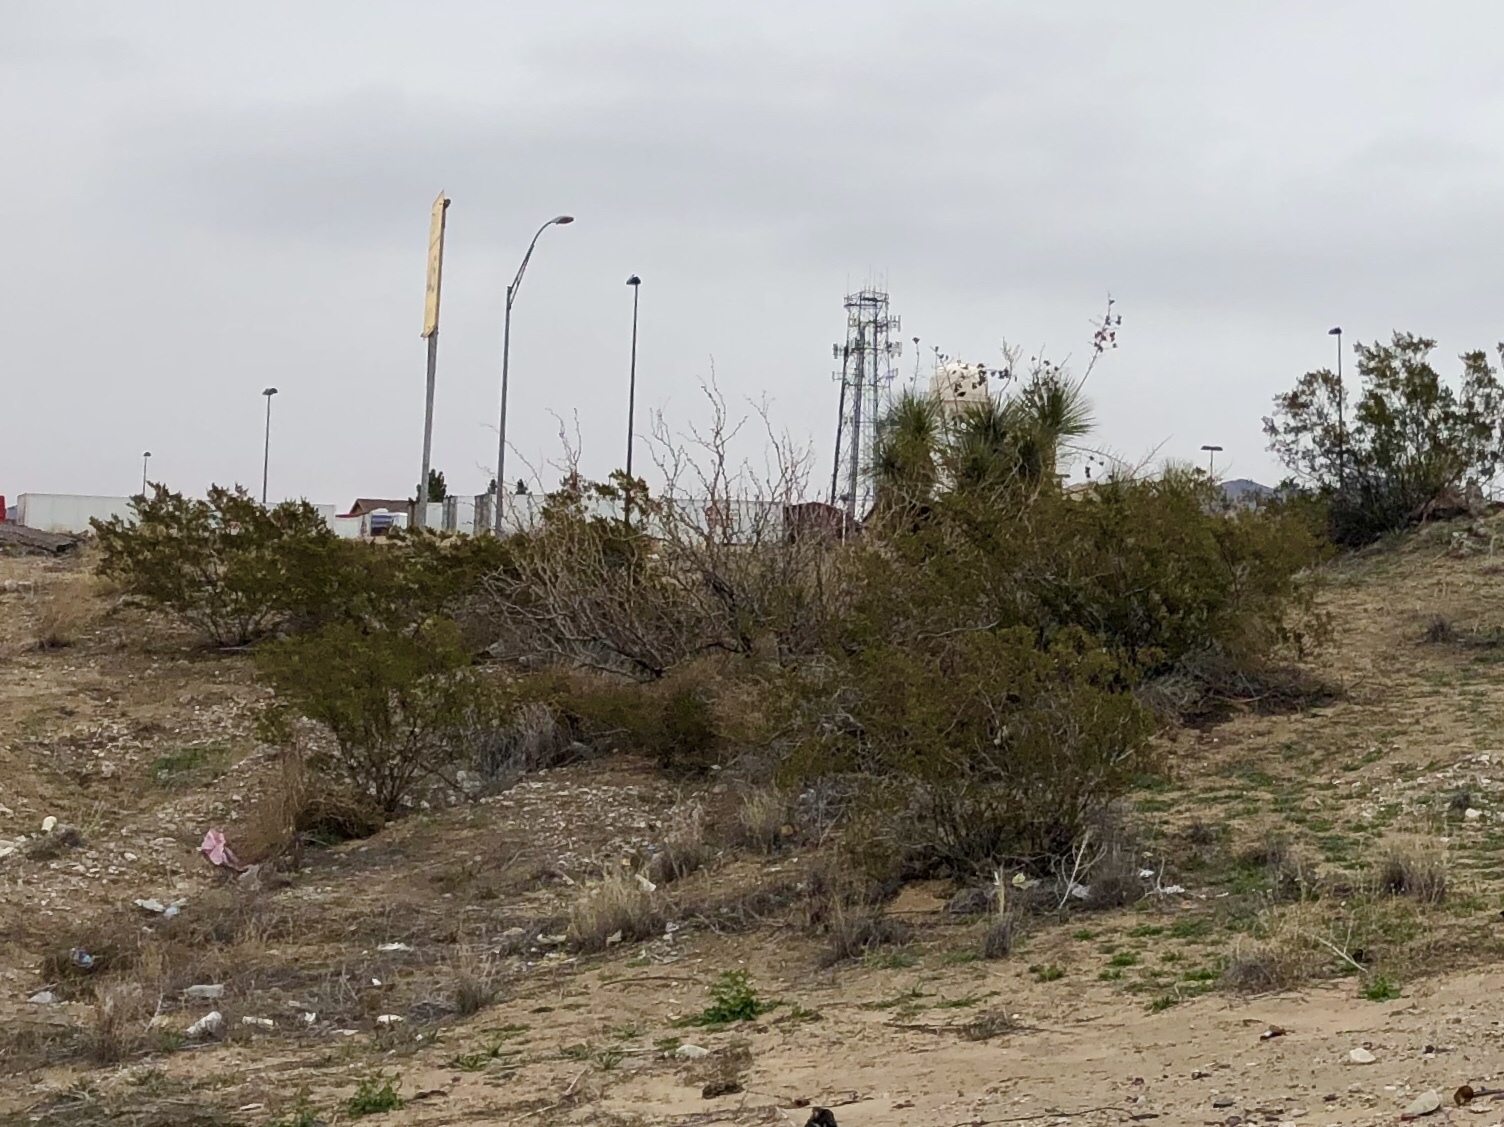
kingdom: Plantae
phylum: Tracheophyta
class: Magnoliopsida
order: Zygophyllales
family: Zygophyllaceae
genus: Larrea
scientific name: Larrea tridentata
